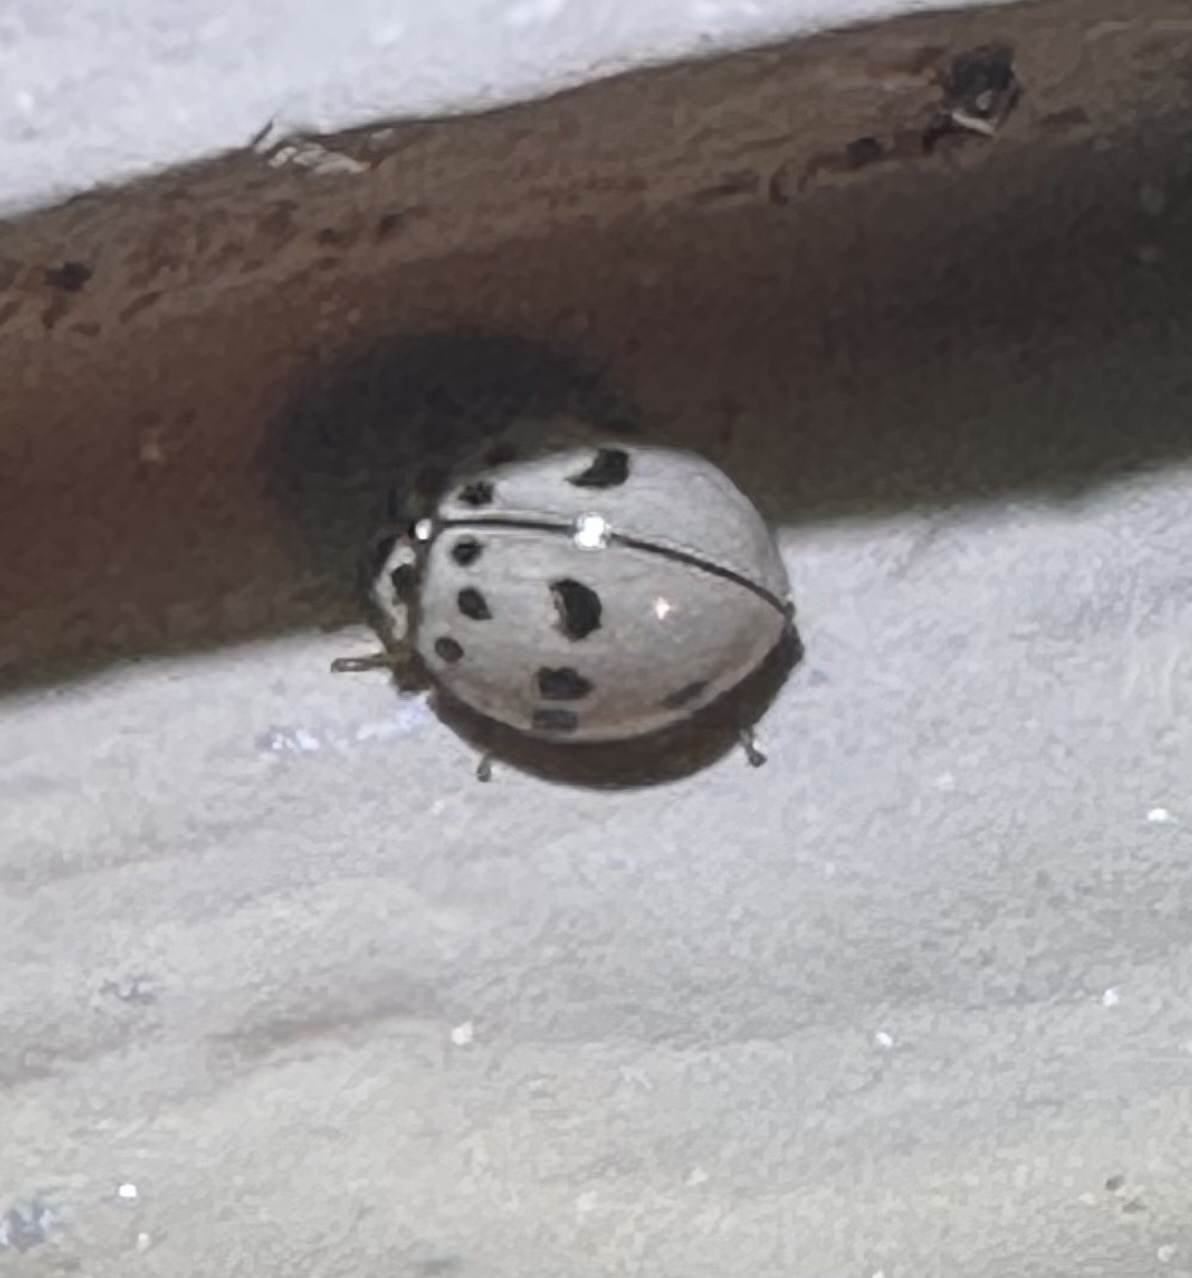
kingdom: Animalia
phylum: Arthropoda
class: Insecta
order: Coleoptera
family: Coccinellidae
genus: Olla
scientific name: Olla v-nigrum
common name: Ashy gray lady beetle
